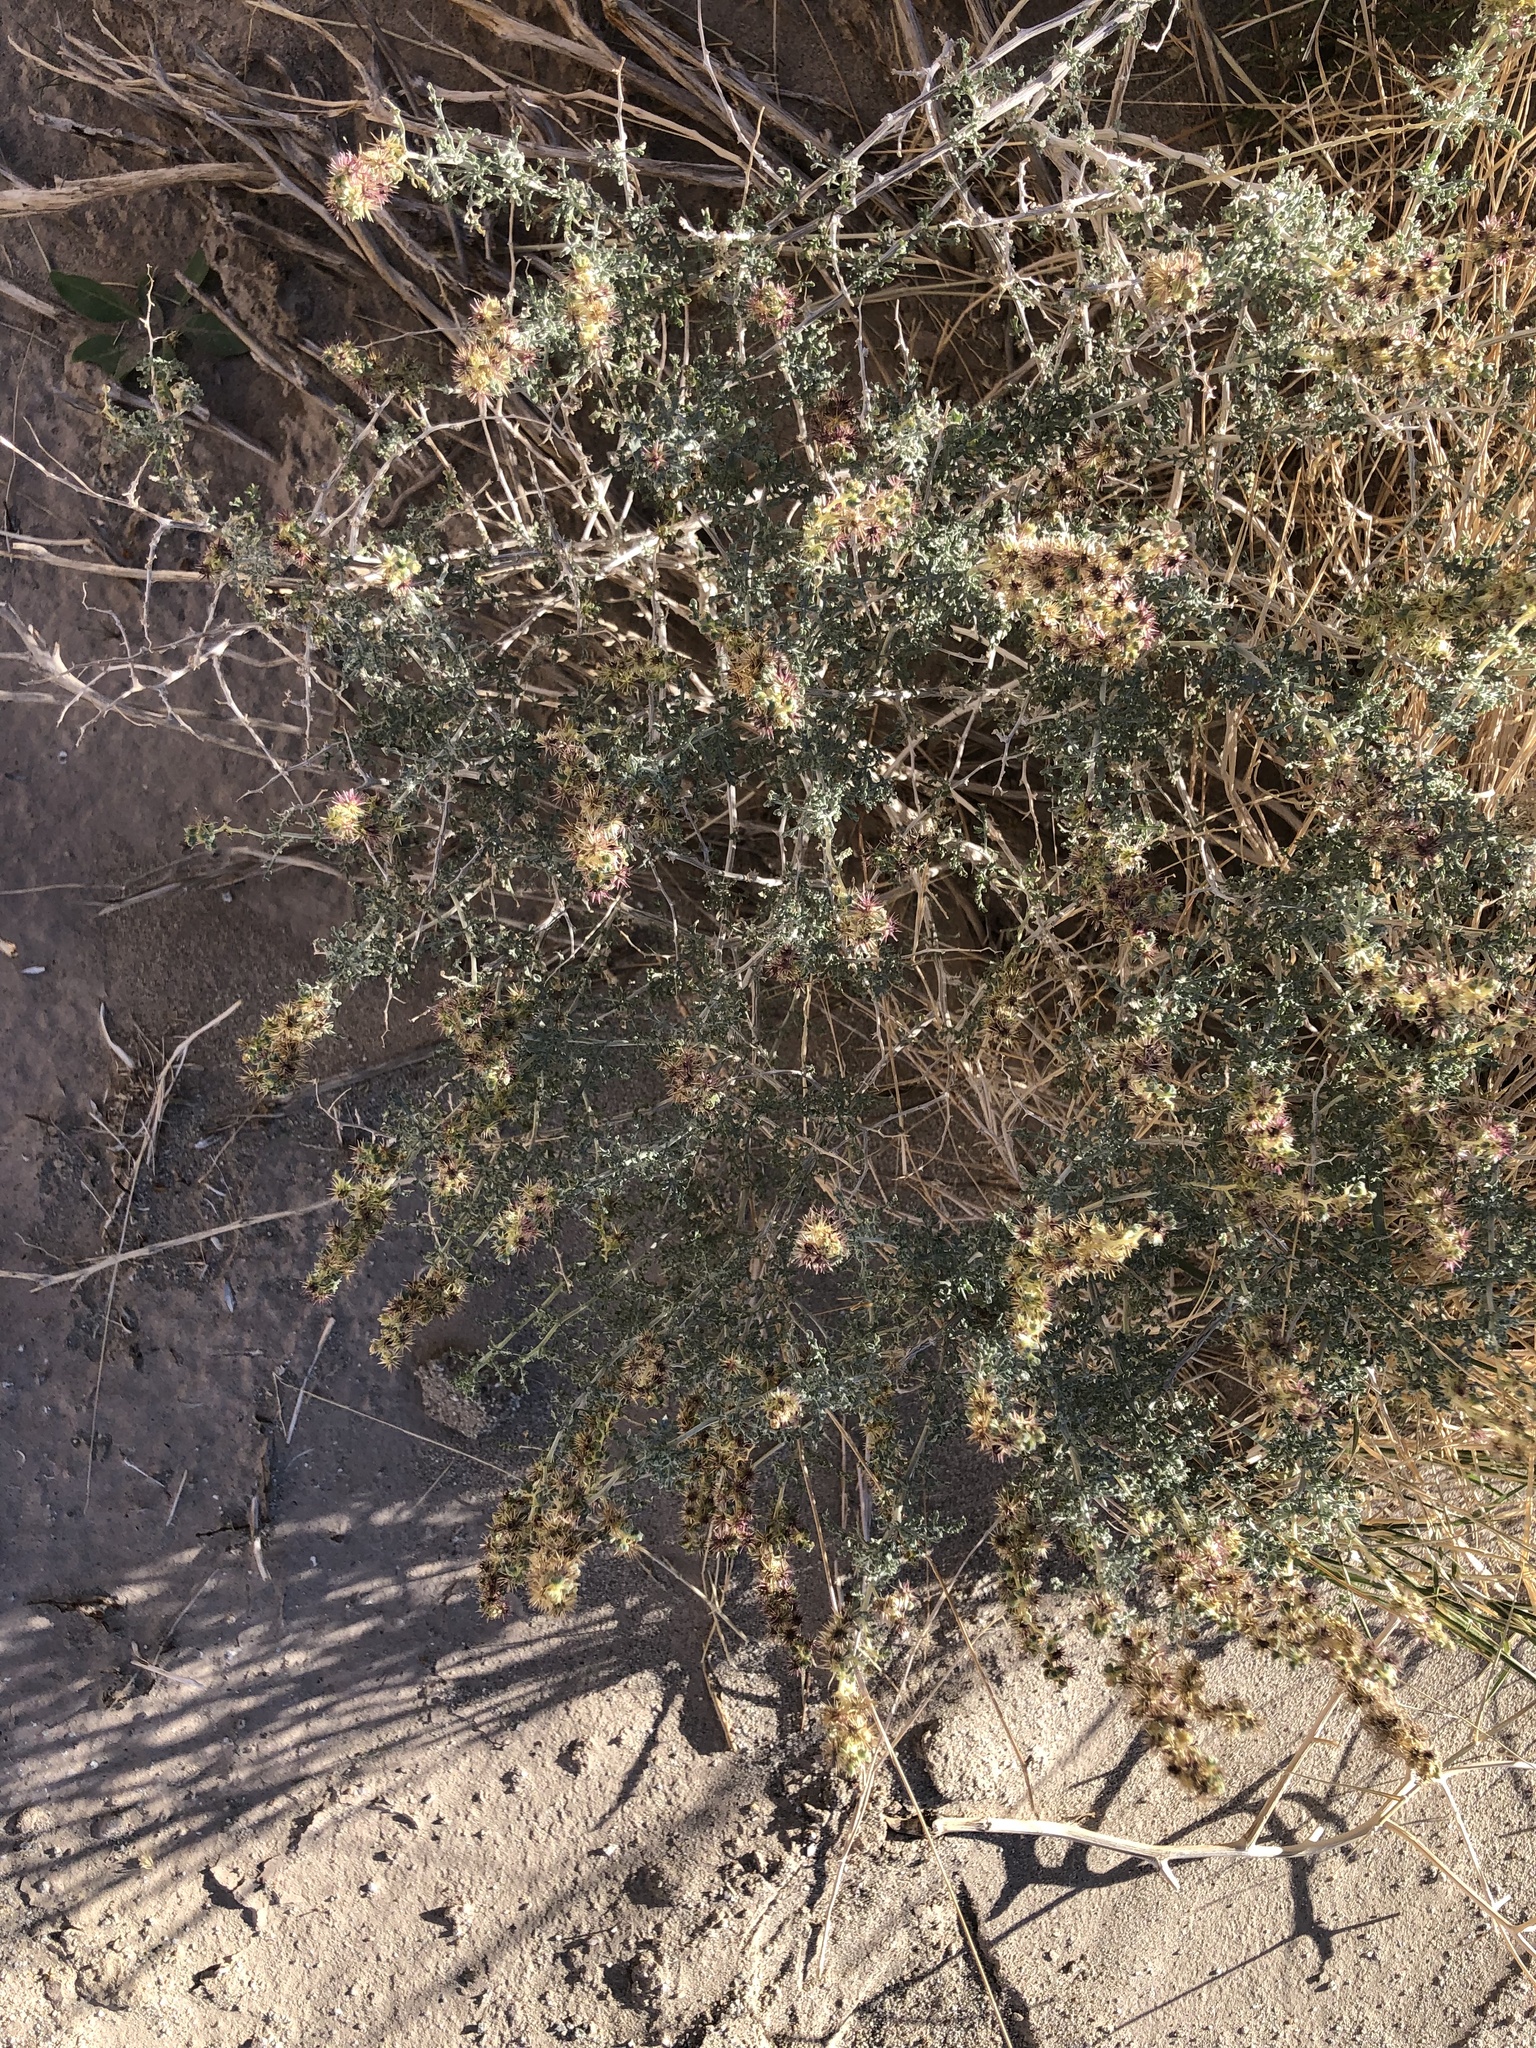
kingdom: Plantae
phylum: Tracheophyta
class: Magnoliopsida
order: Asterales
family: Asteraceae
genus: Ambrosia
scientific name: Ambrosia dumosa
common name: Bur-sage
